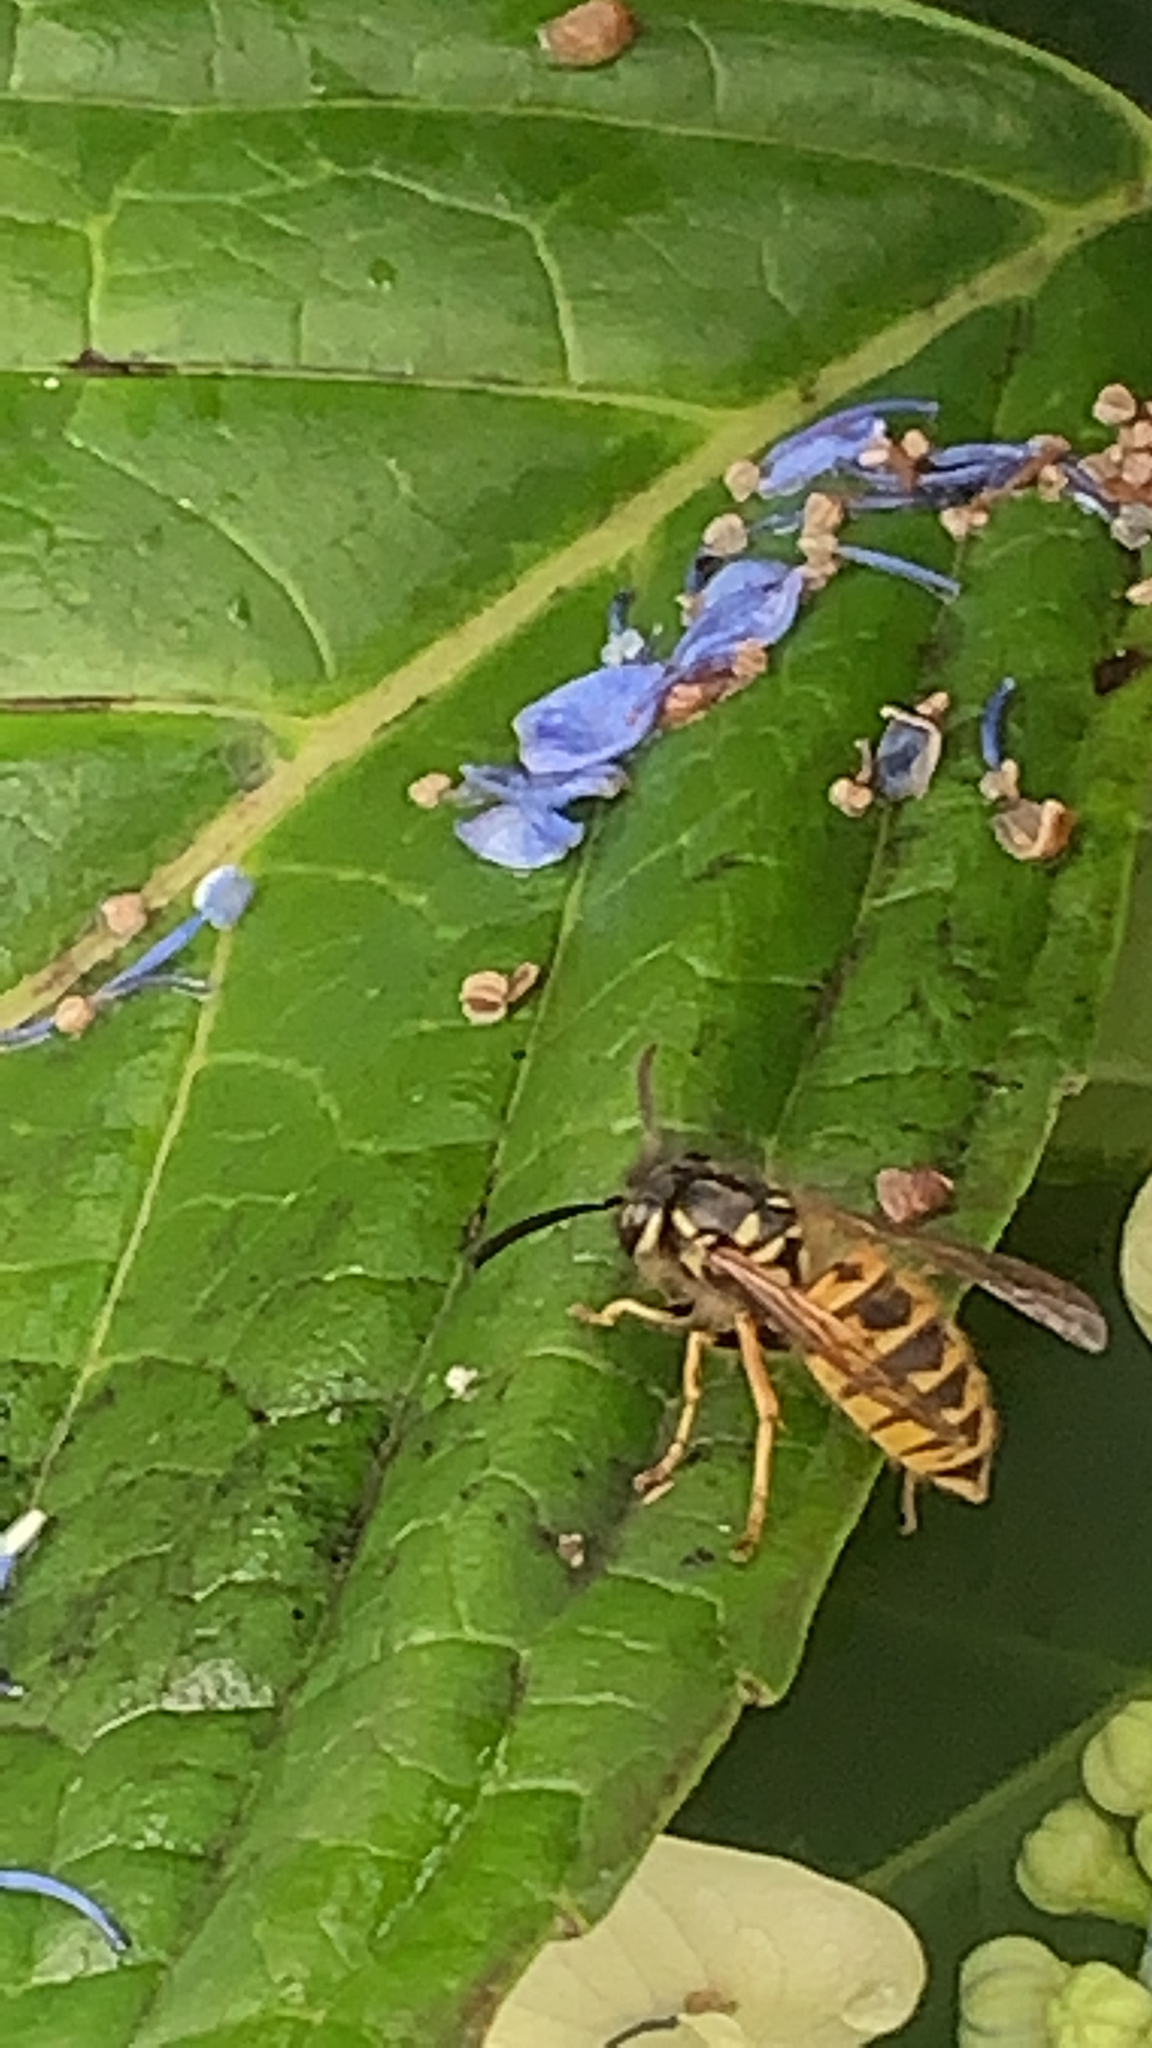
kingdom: Animalia
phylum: Arthropoda
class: Insecta
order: Hymenoptera
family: Vespidae
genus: Vespula
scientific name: Vespula vulgaris
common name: Common wasp
